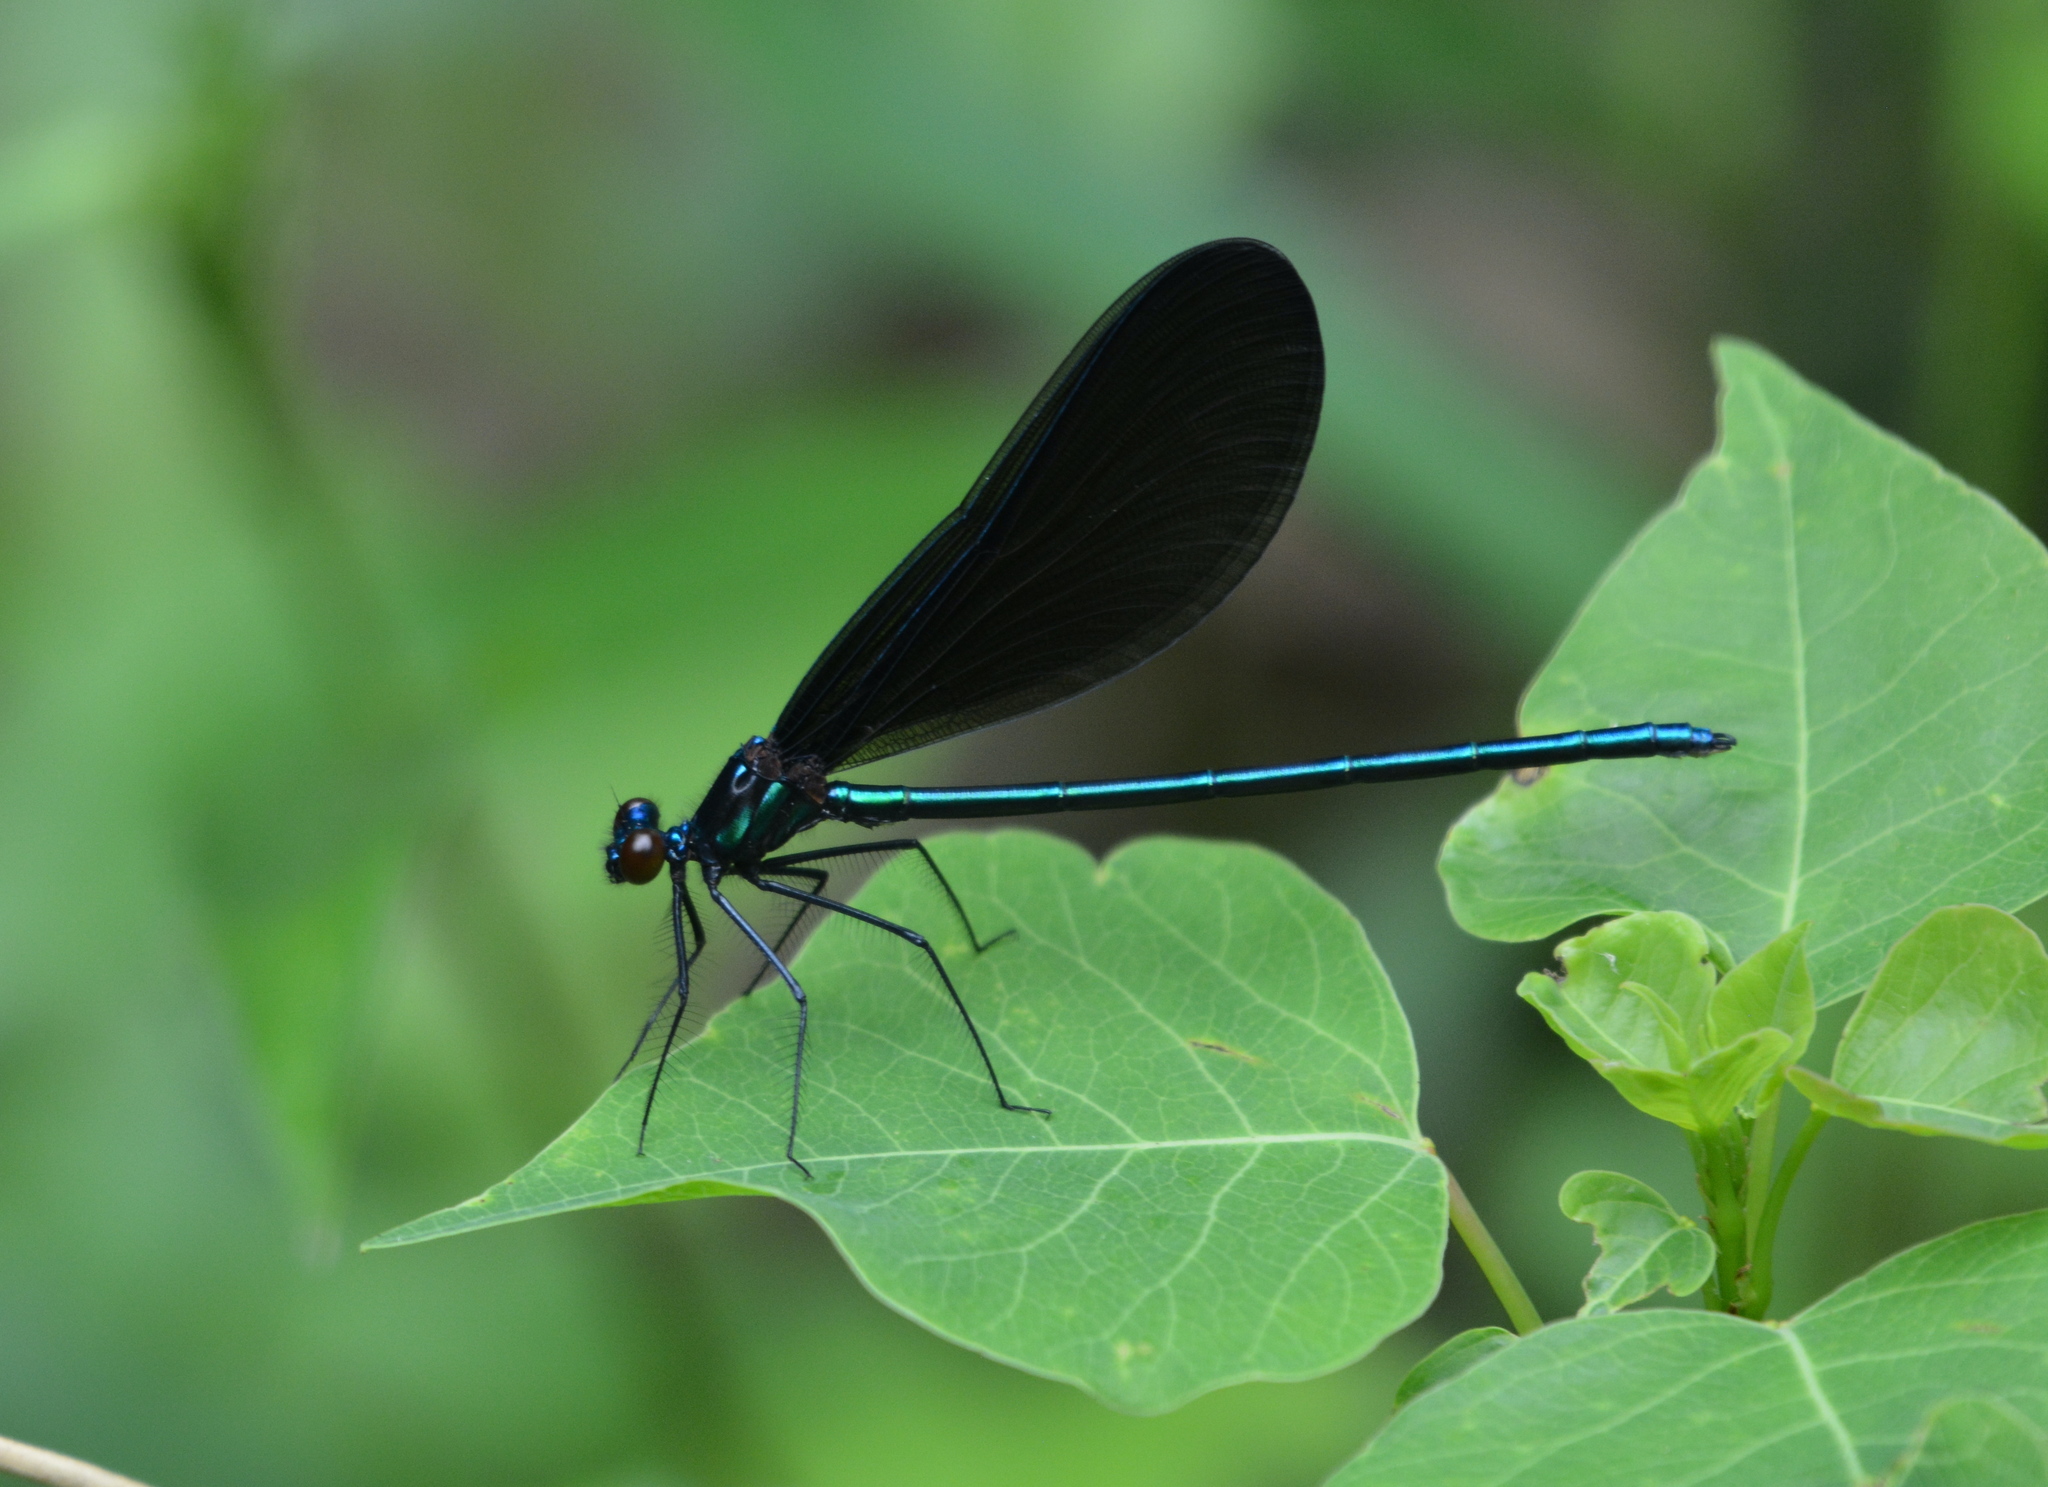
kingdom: Animalia
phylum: Arthropoda
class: Insecta
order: Odonata
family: Calopterygidae
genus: Calopteryx
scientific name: Calopteryx maculata
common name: Ebony jewelwing
